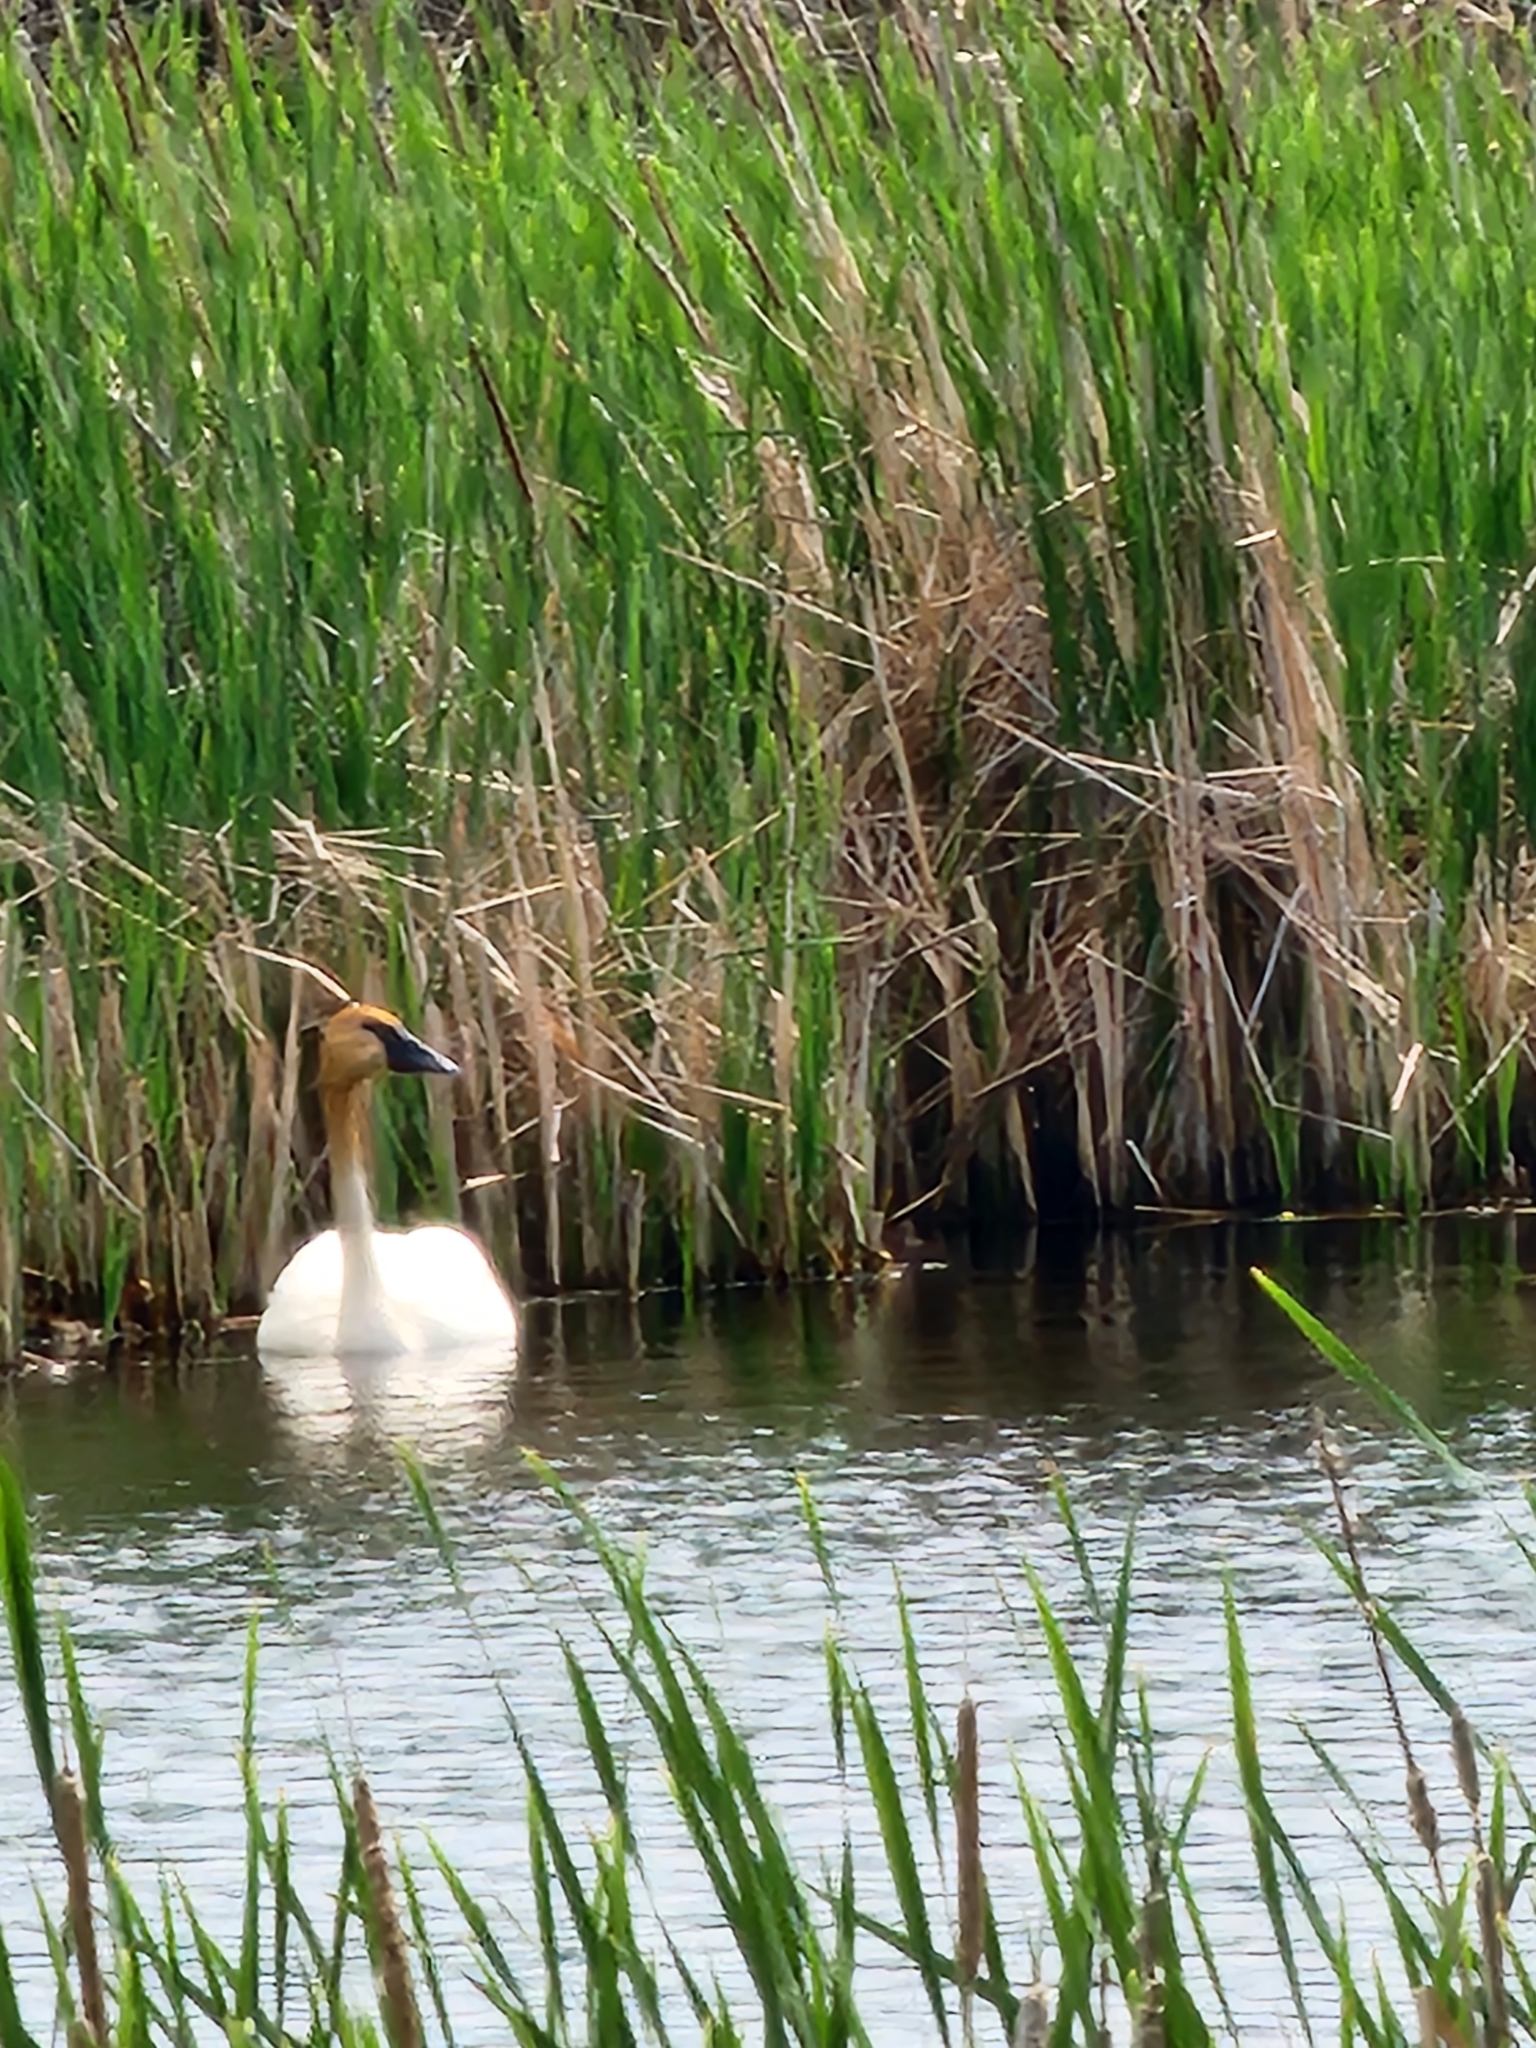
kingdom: Animalia
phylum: Chordata
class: Aves
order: Anseriformes
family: Anatidae
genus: Cygnus
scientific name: Cygnus buccinator
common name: Trumpeter swan
